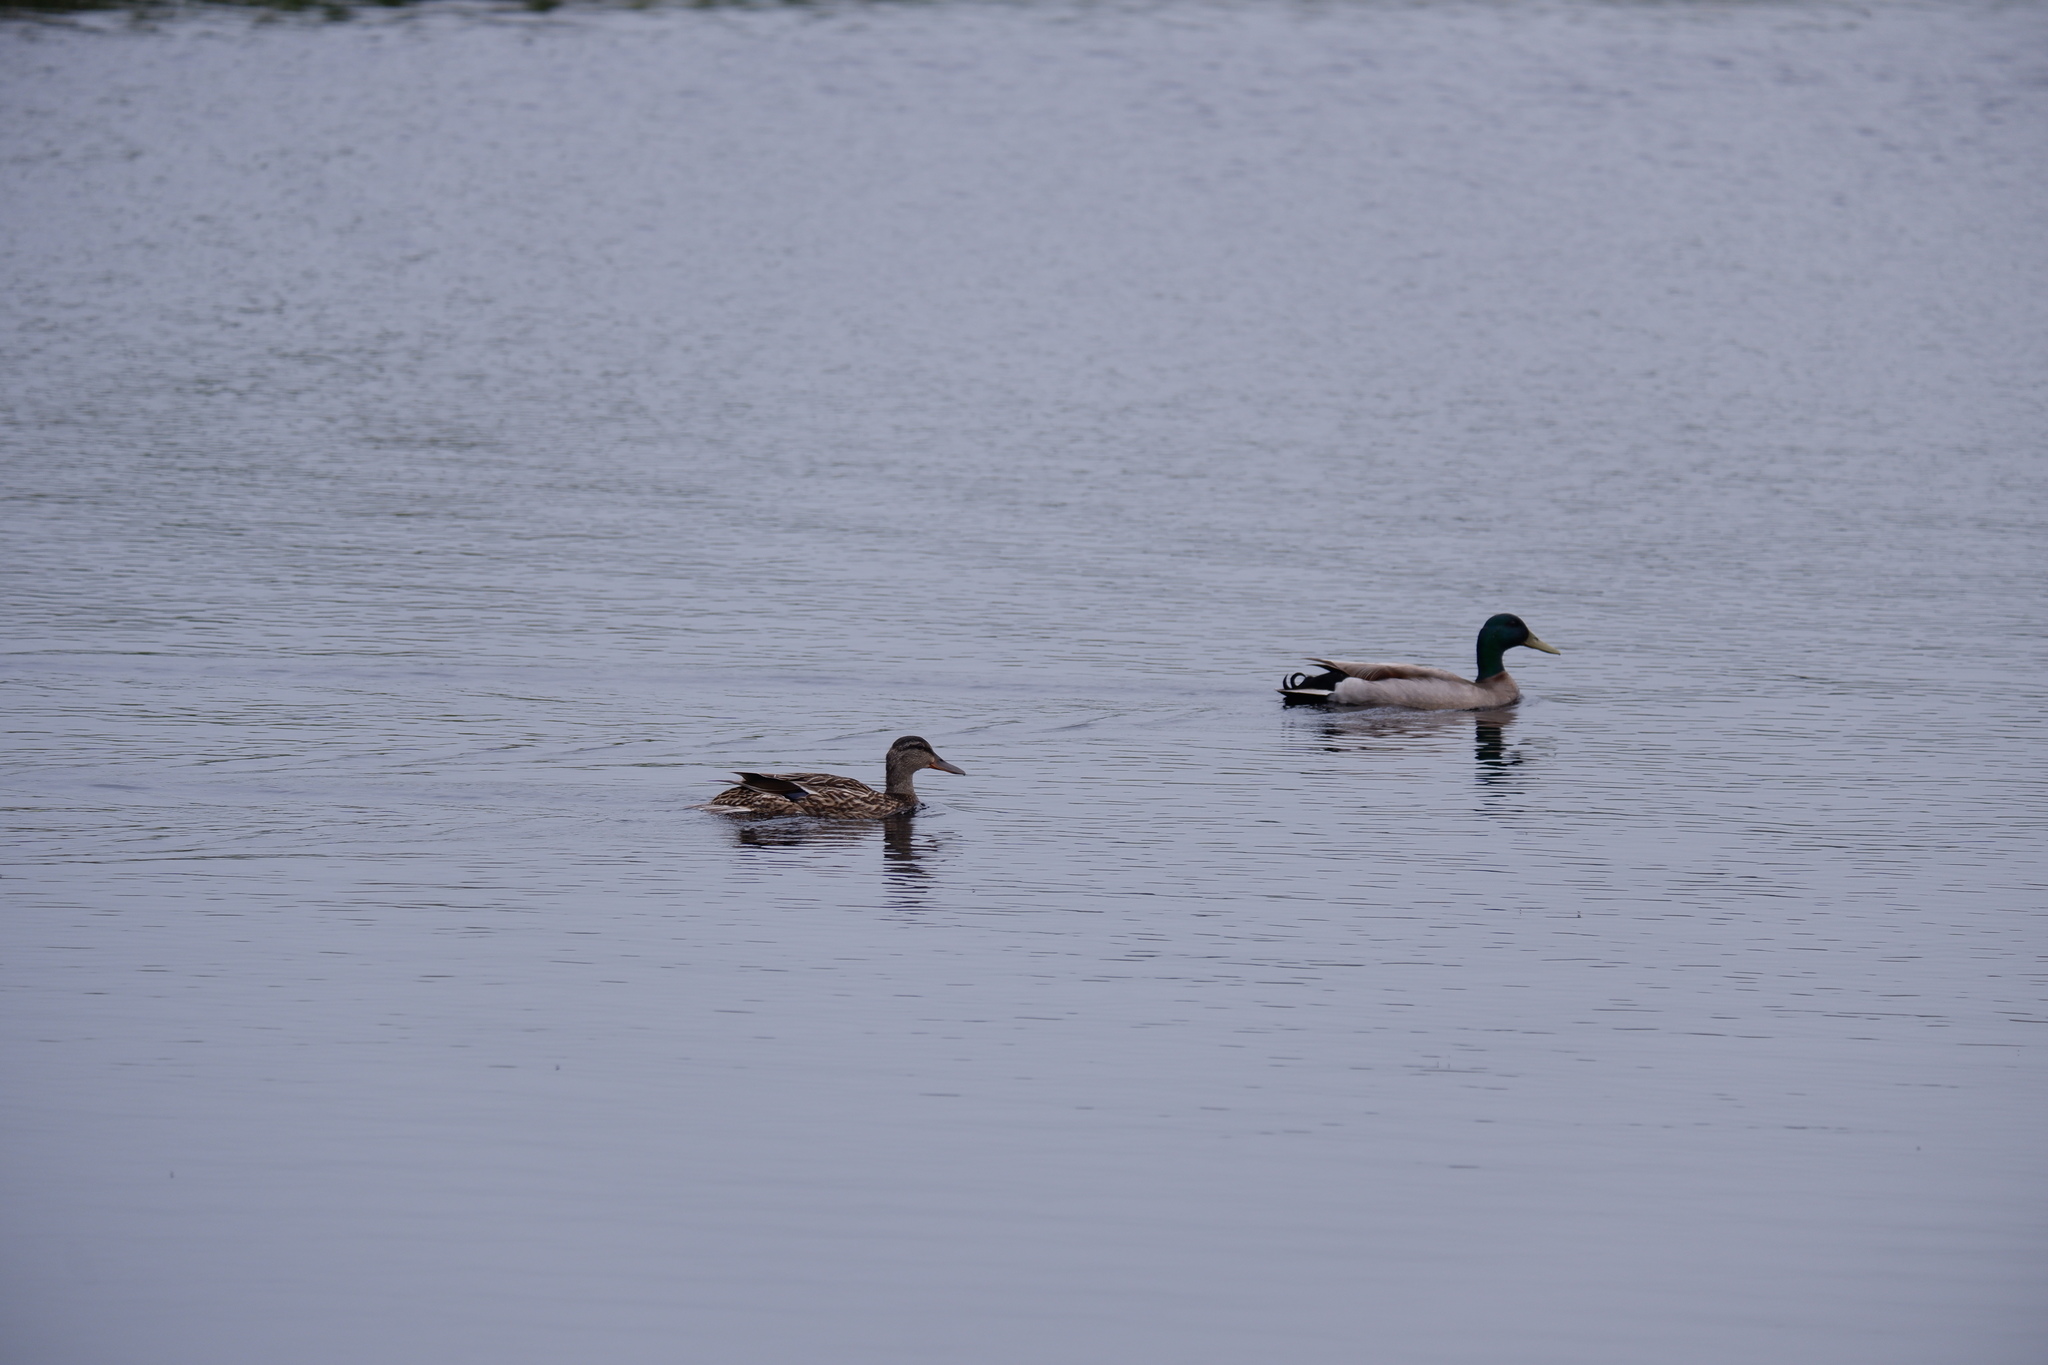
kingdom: Animalia
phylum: Chordata
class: Aves
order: Anseriformes
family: Anatidae
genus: Anas
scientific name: Anas platyrhynchos
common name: Mallard
